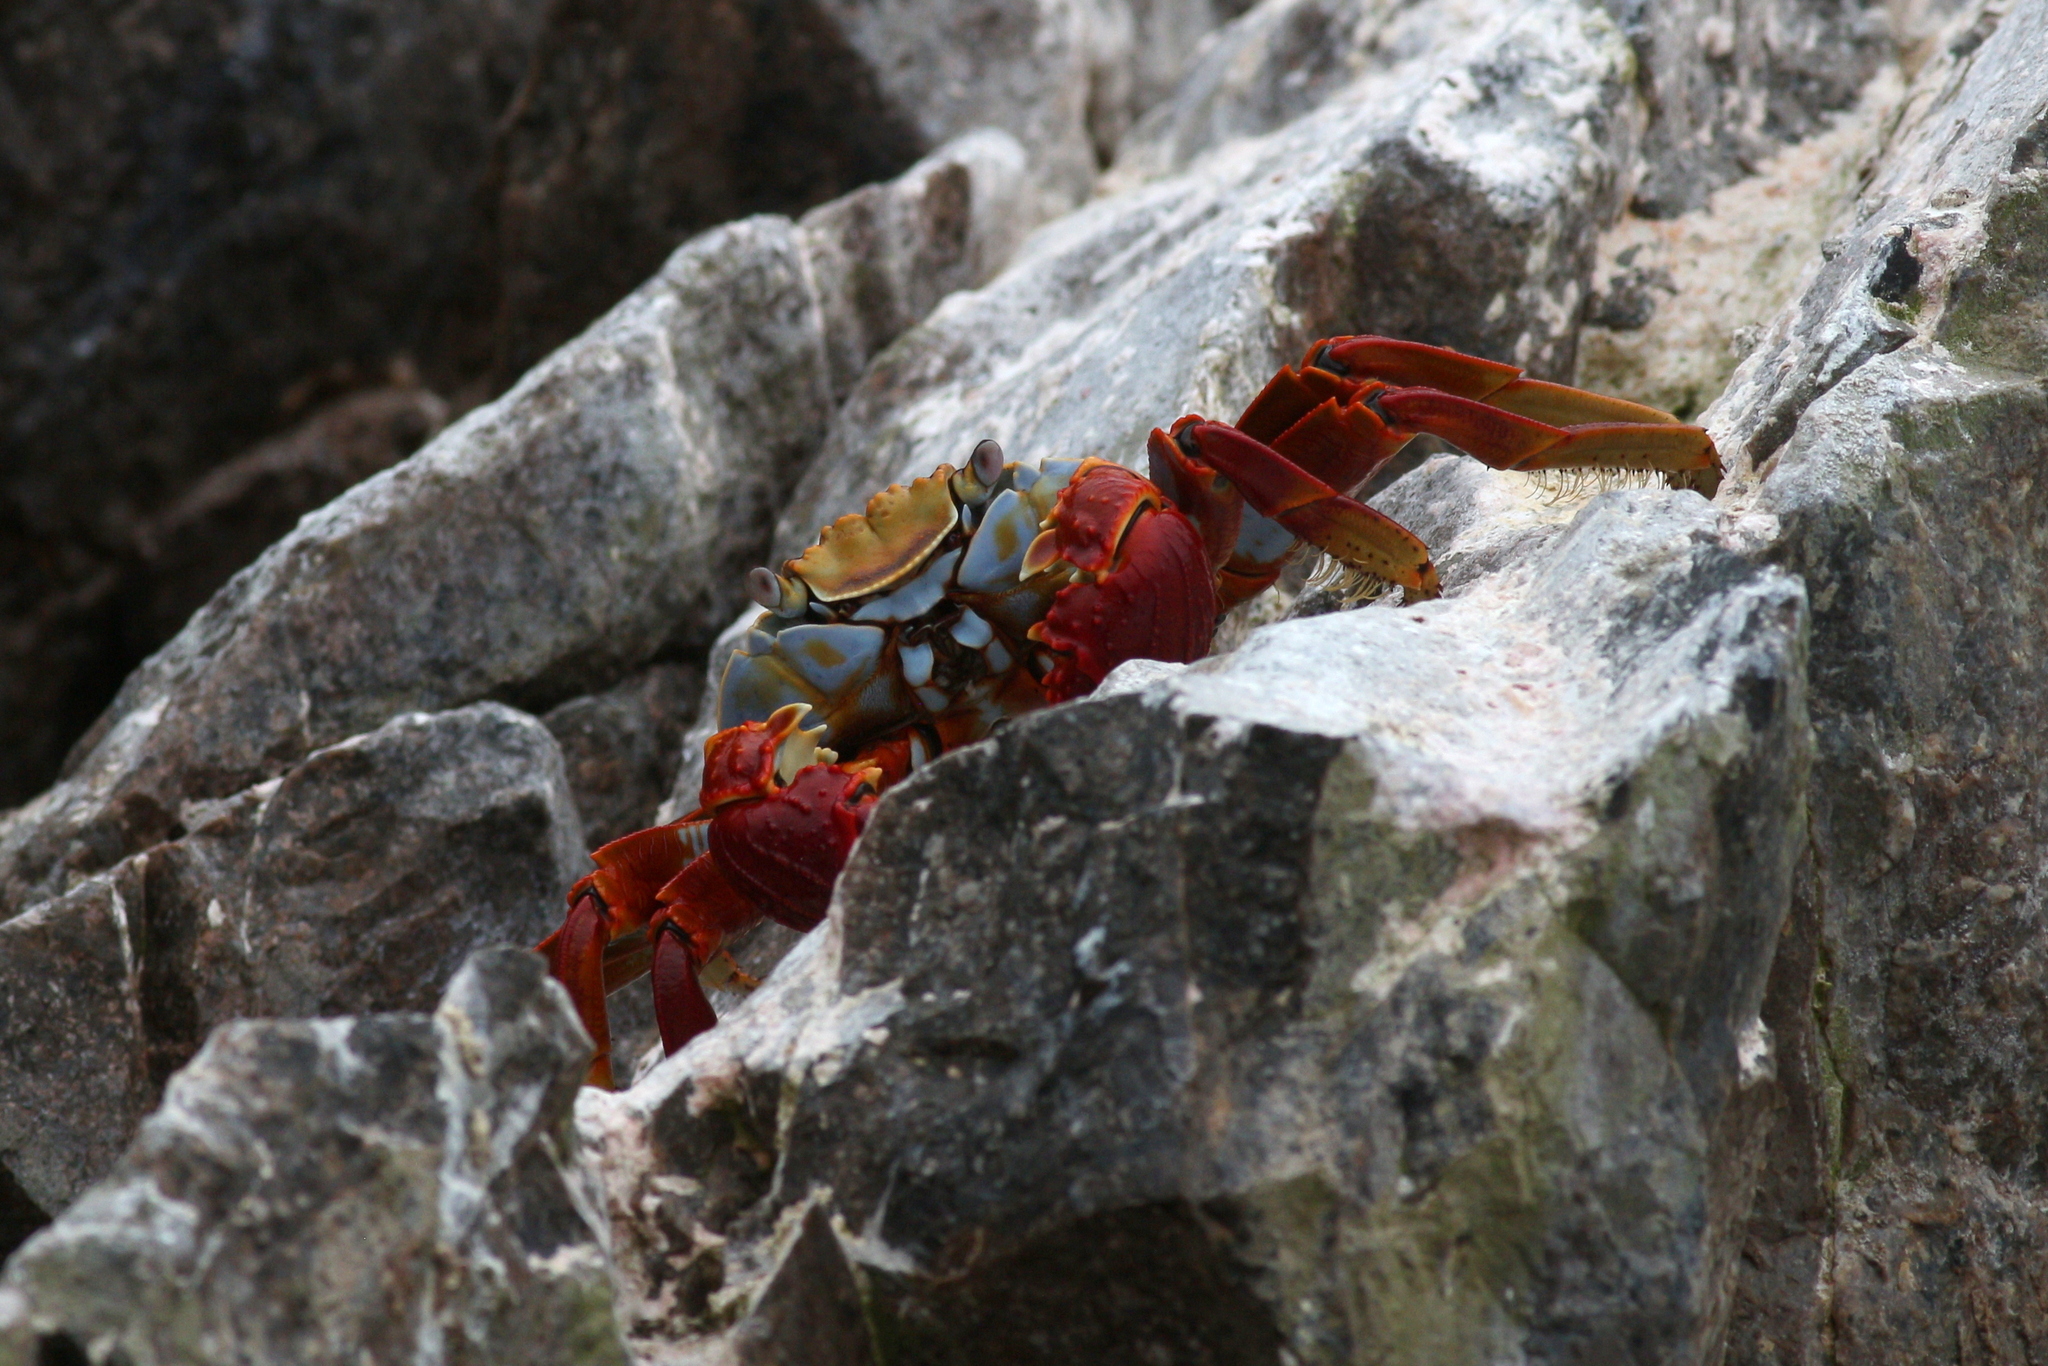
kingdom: Animalia
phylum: Arthropoda
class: Malacostraca
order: Decapoda
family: Grapsidae
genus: Grapsus
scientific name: Grapsus grapsus
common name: Sally lightfoot
